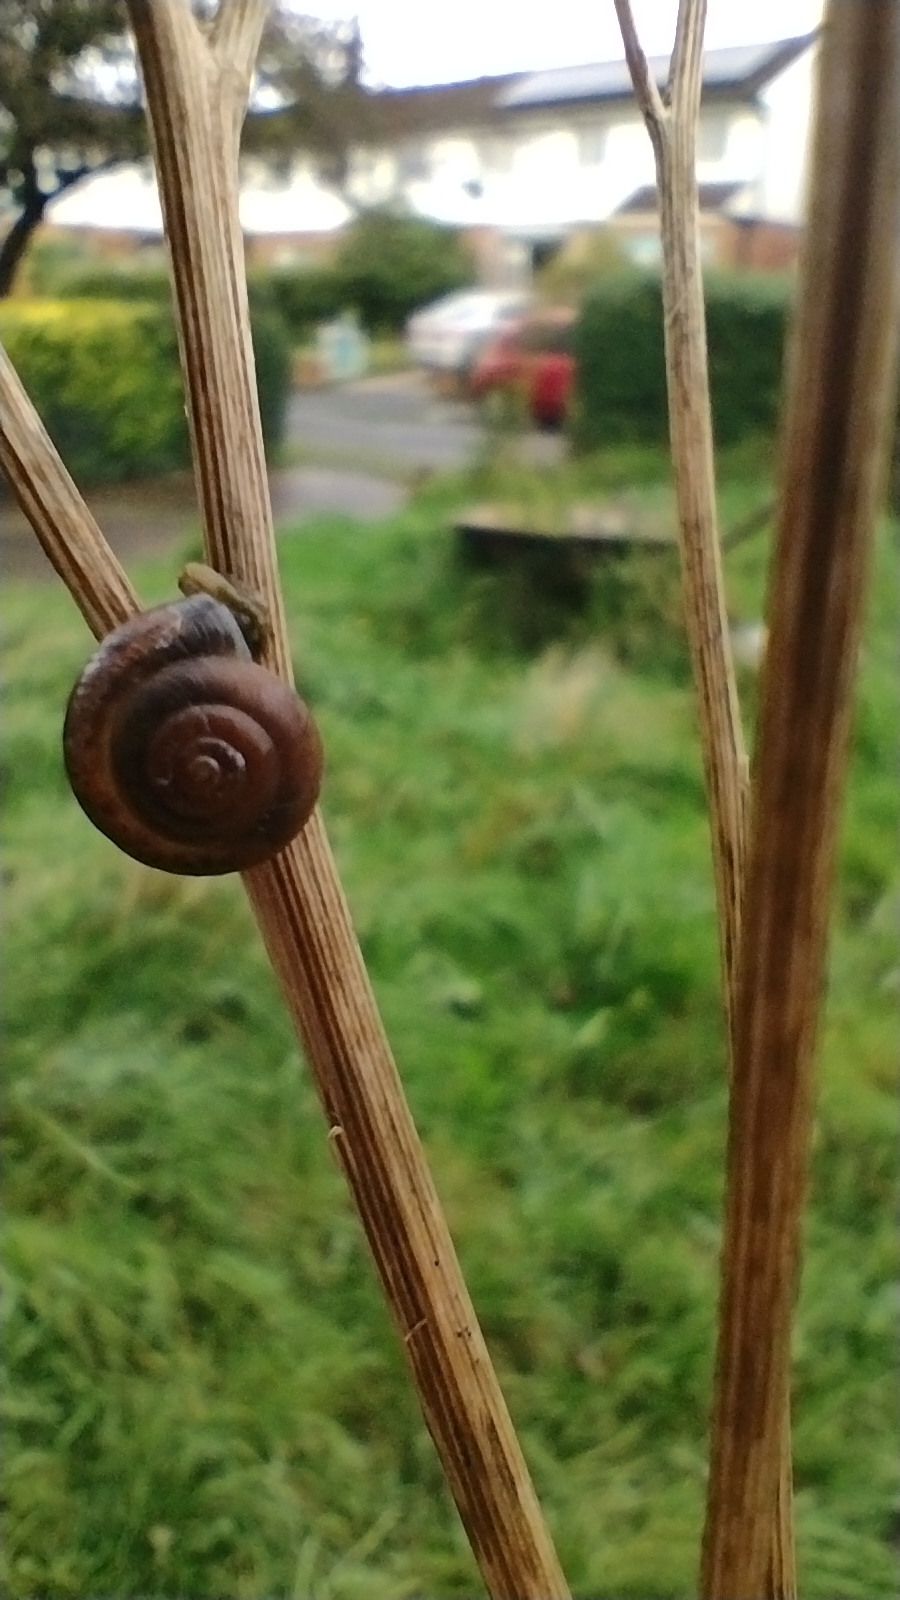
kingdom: Animalia
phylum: Mollusca
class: Gastropoda
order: Stylommatophora
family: Hygromiidae
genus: Trochulus
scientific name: Trochulus striolatus
